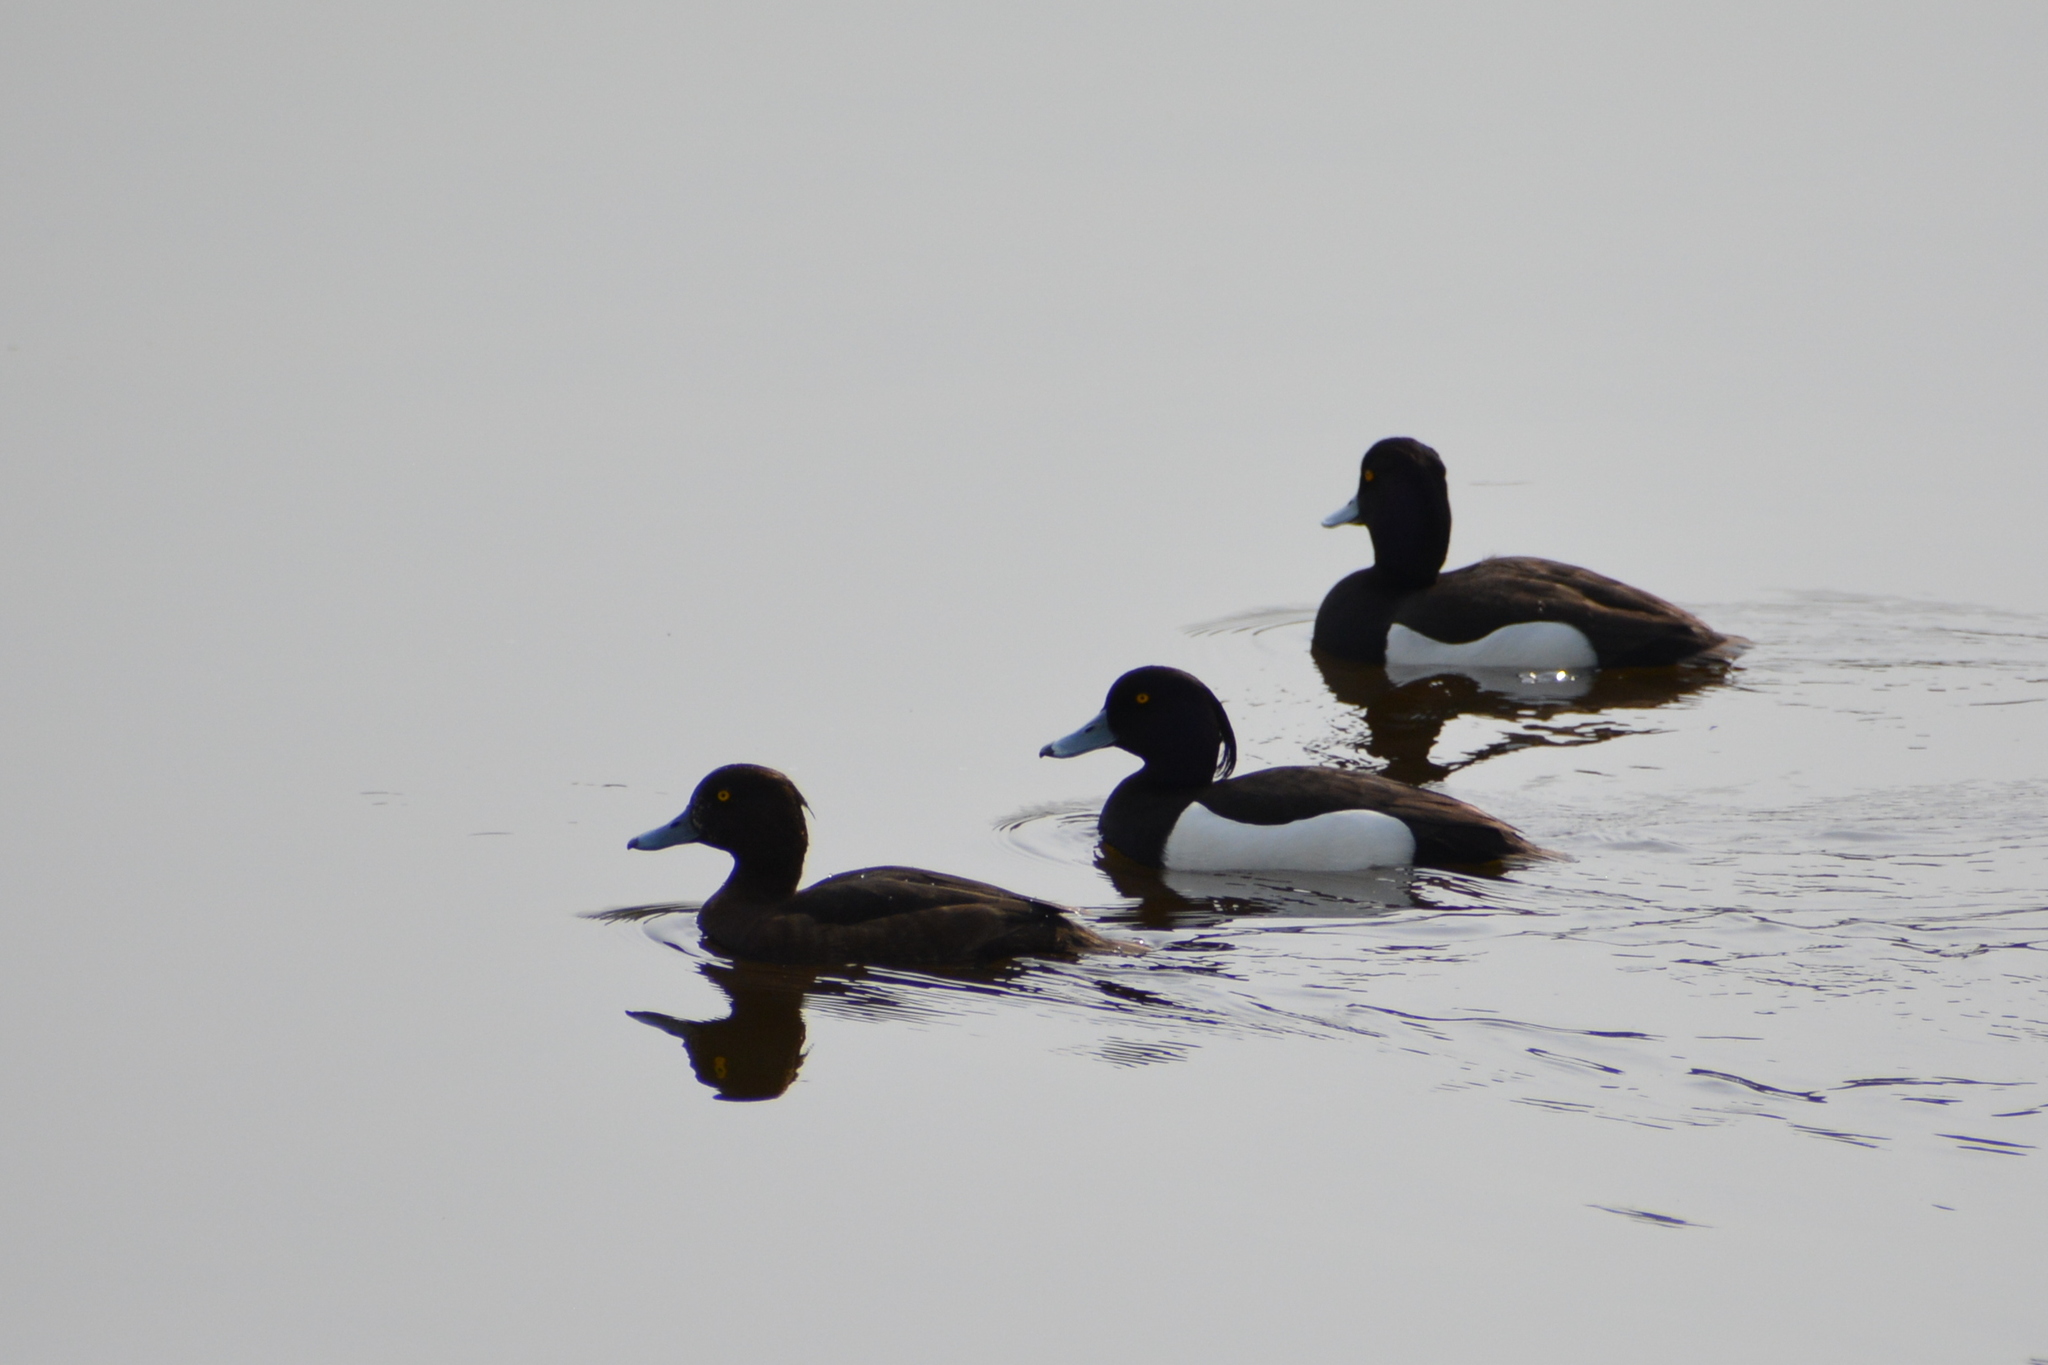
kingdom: Animalia
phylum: Chordata
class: Aves
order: Anseriformes
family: Anatidae
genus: Aythya
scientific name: Aythya fuligula
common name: Tufted duck
